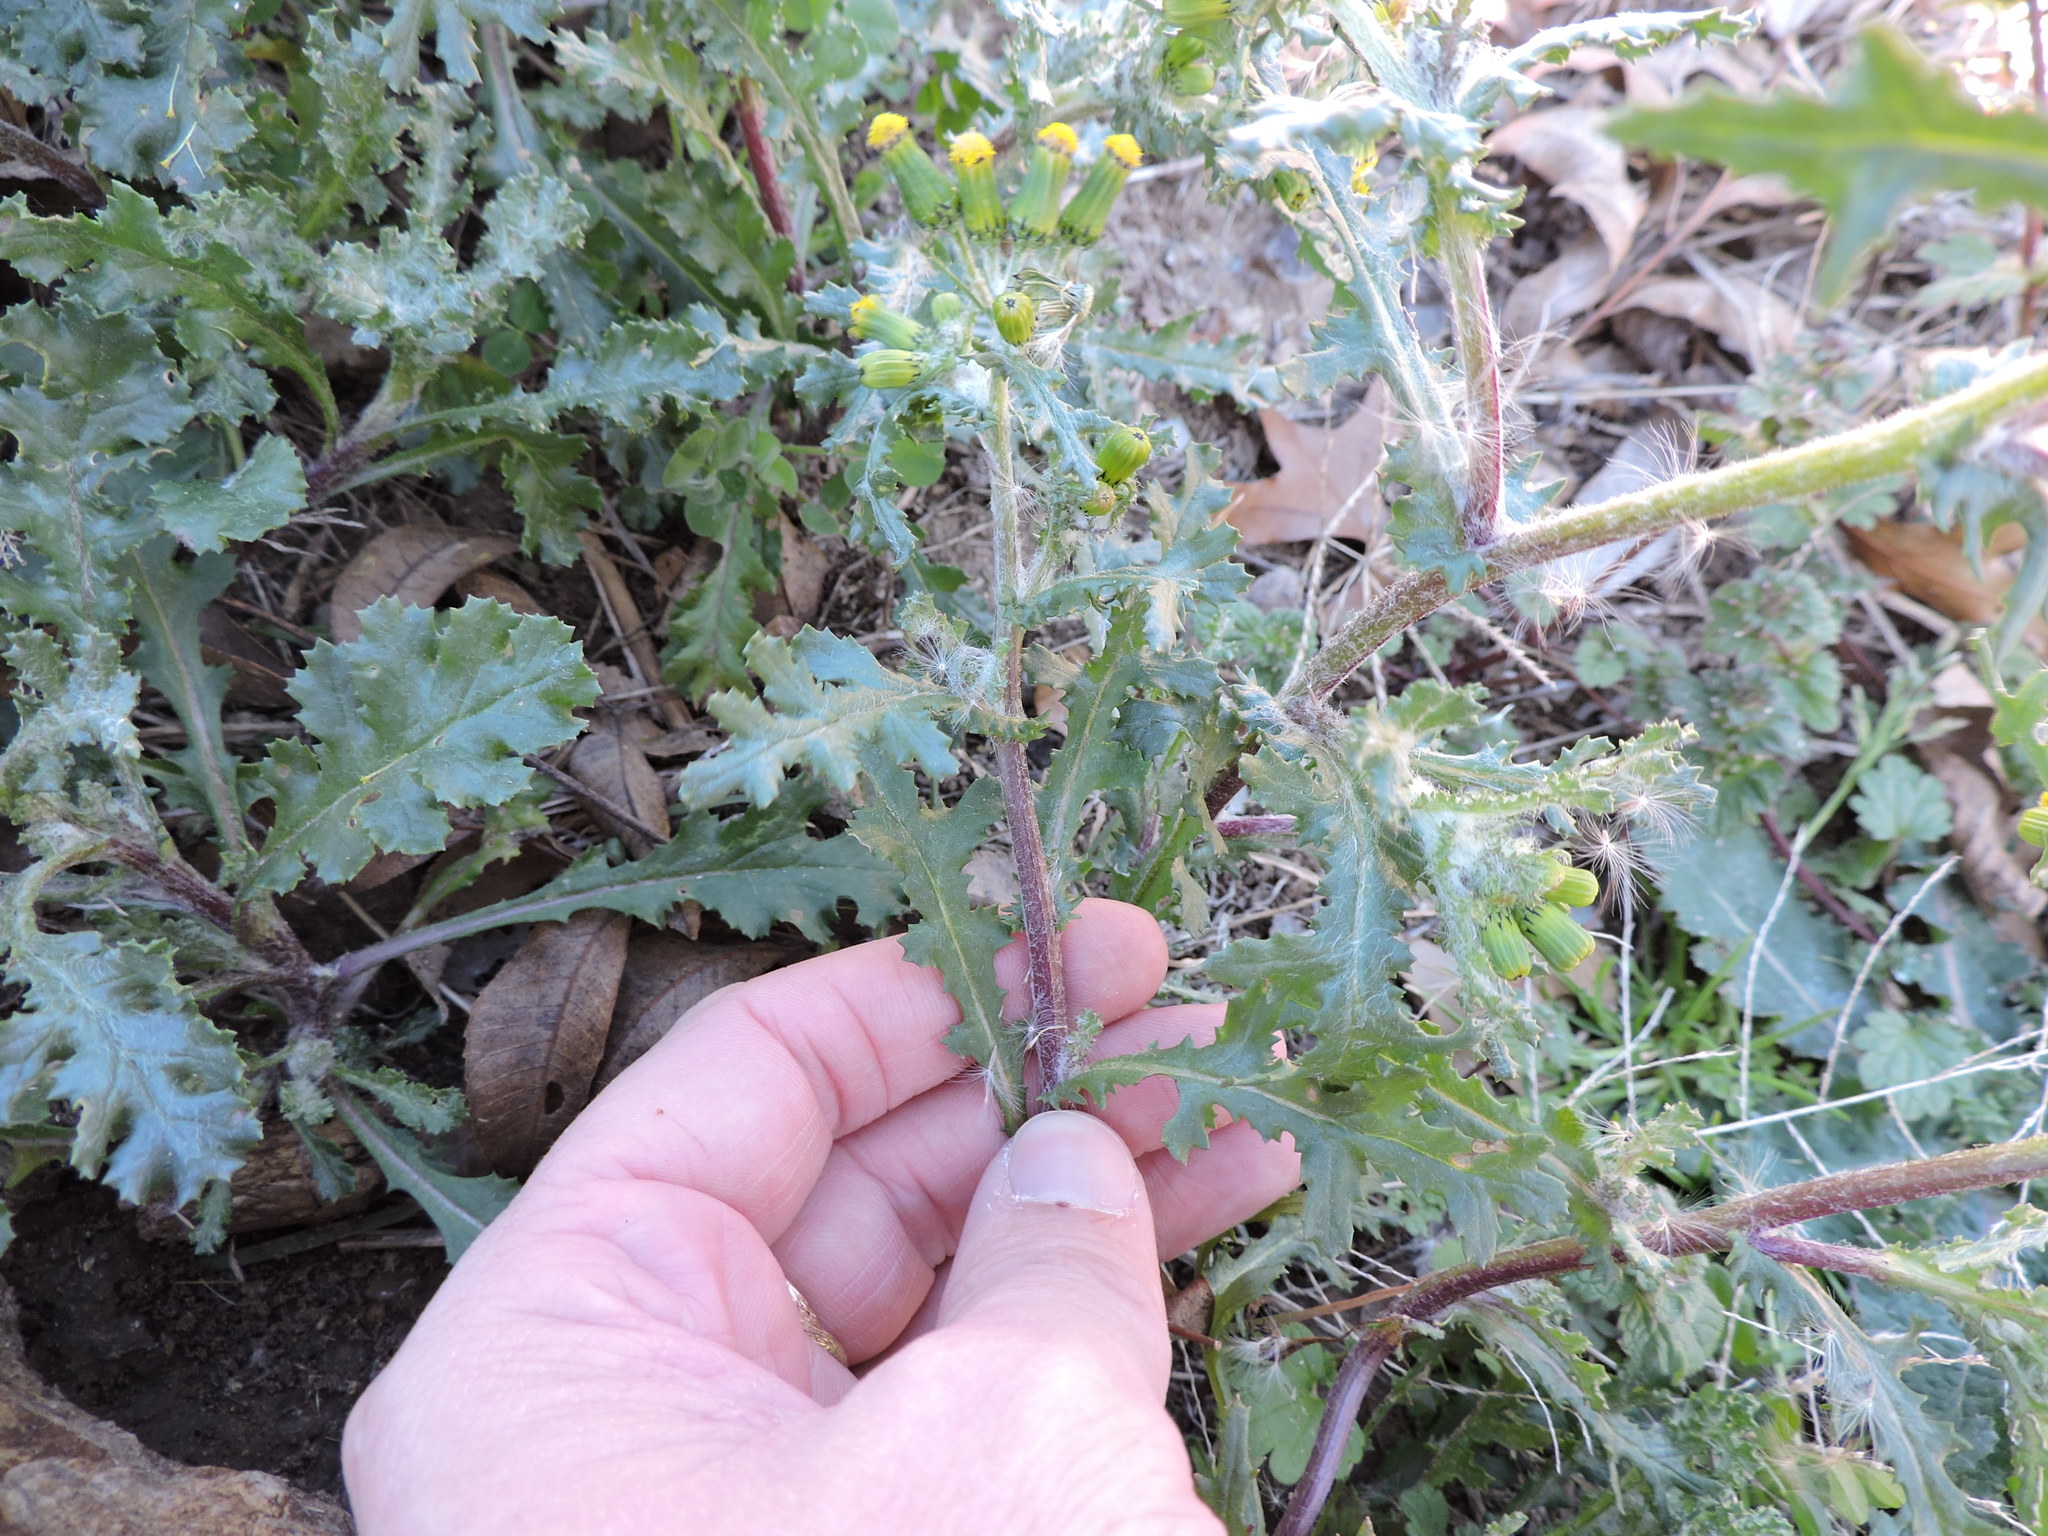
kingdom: Plantae
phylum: Tracheophyta
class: Magnoliopsida
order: Asterales
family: Asteraceae
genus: Senecio
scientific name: Senecio vulgaris
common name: Old-man-in-the-spring
